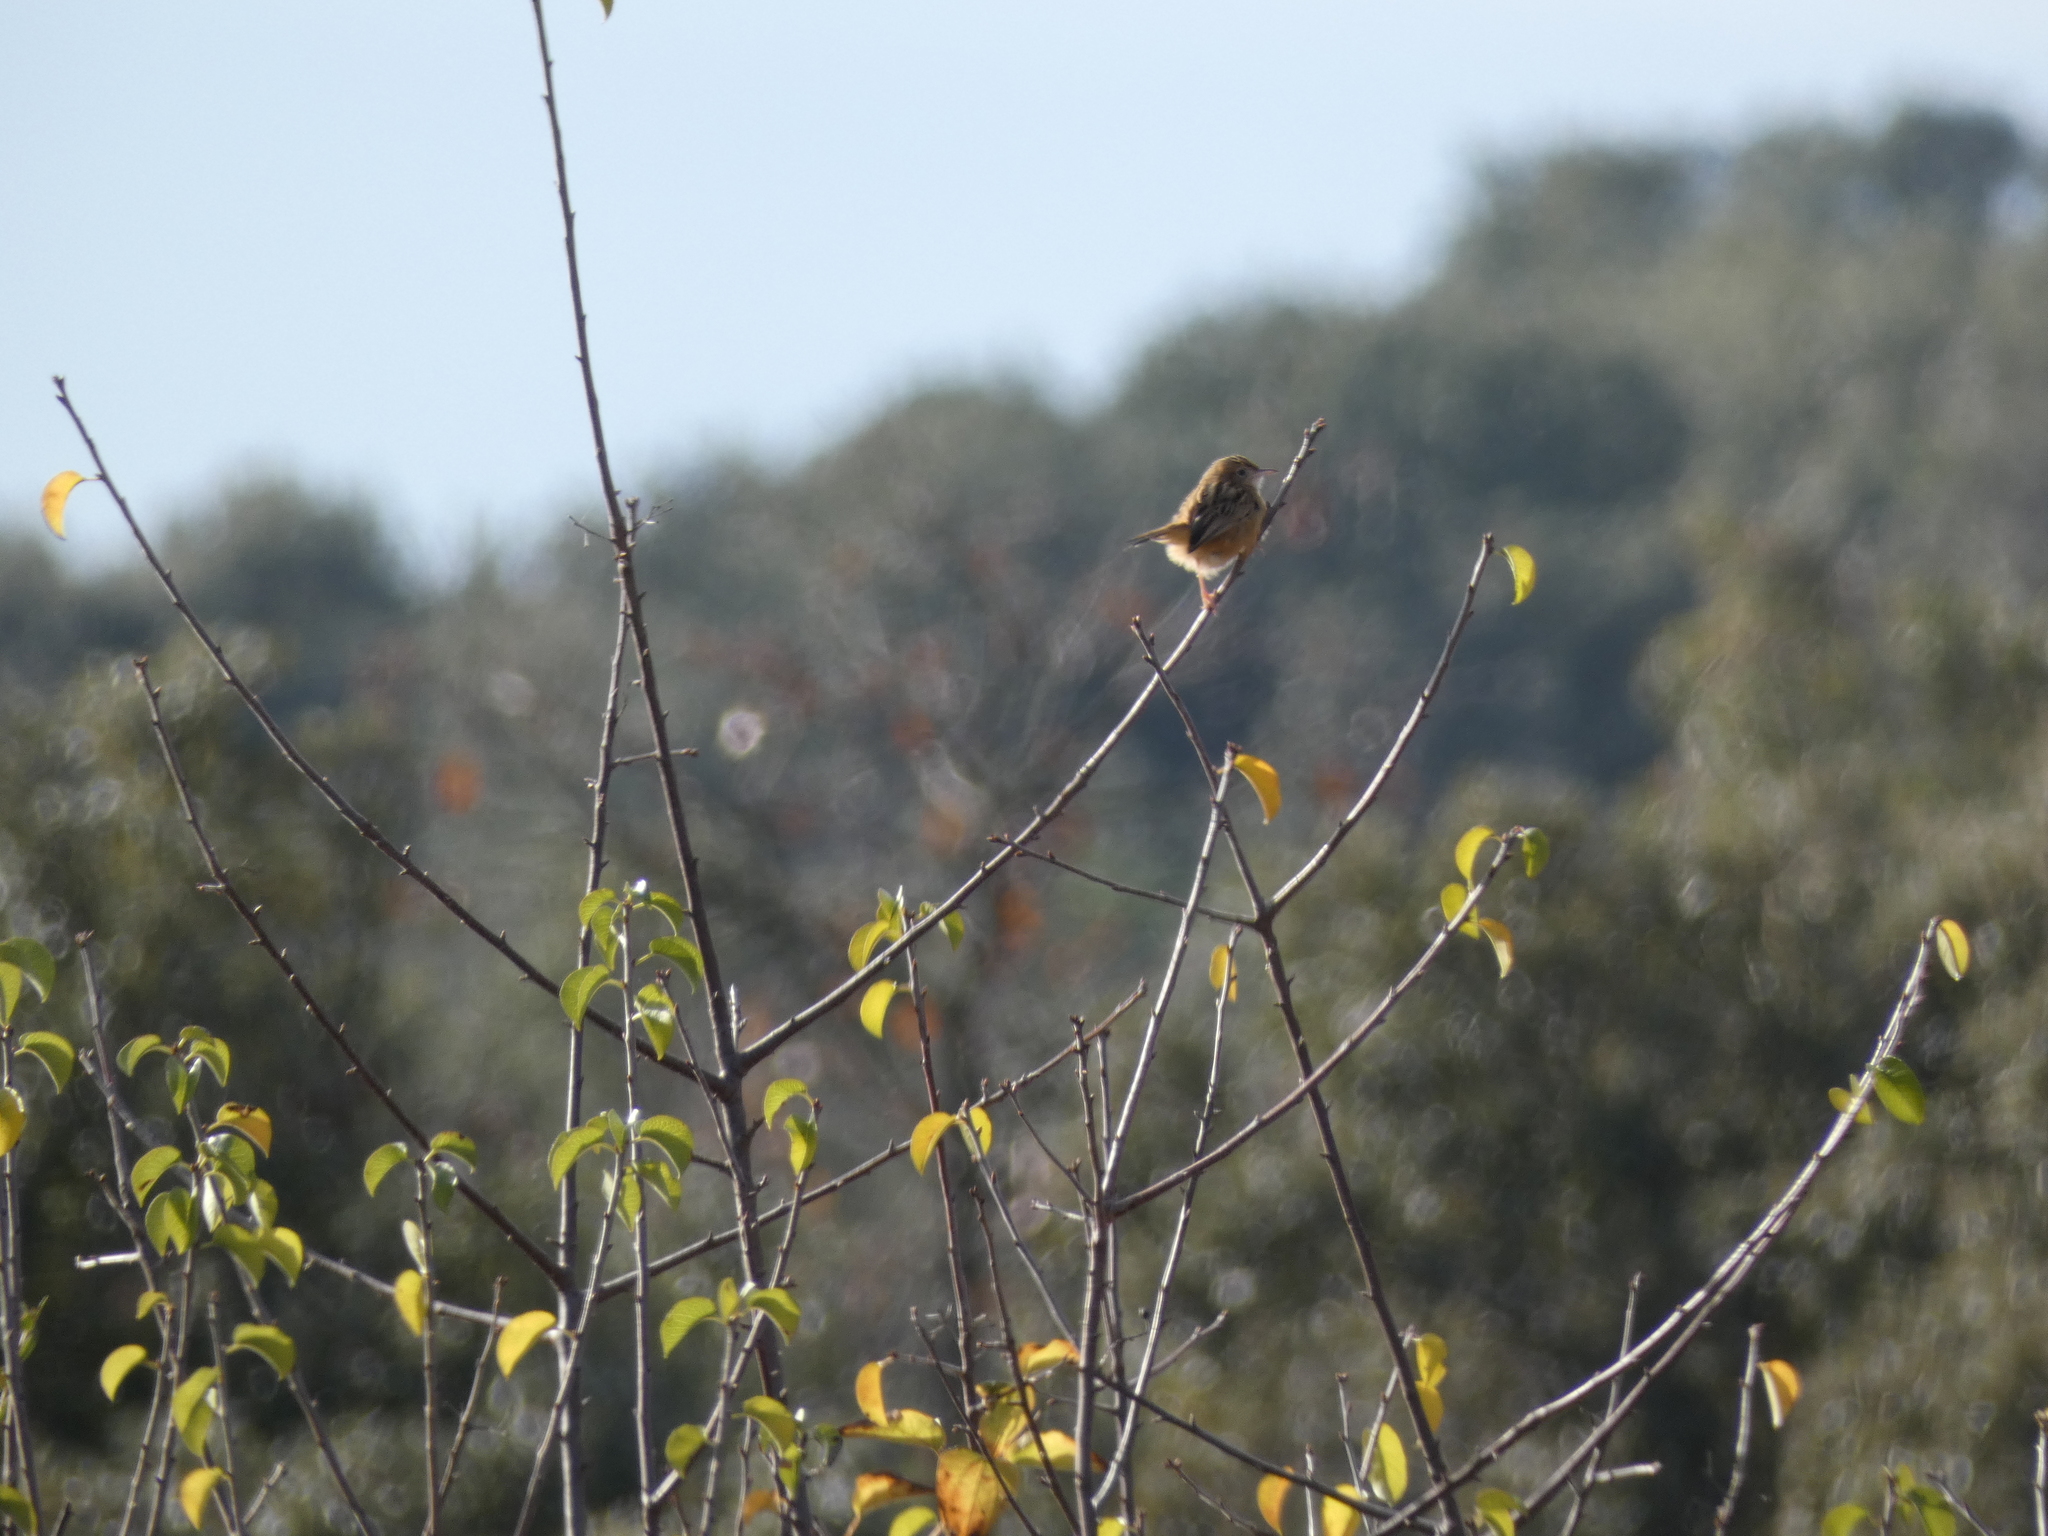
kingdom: Animalia
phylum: Chordata
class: Aves
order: Passeriformes
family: Cisticolidae
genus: Cisticola
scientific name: Cisticola juncidis
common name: Zitting cisticola
